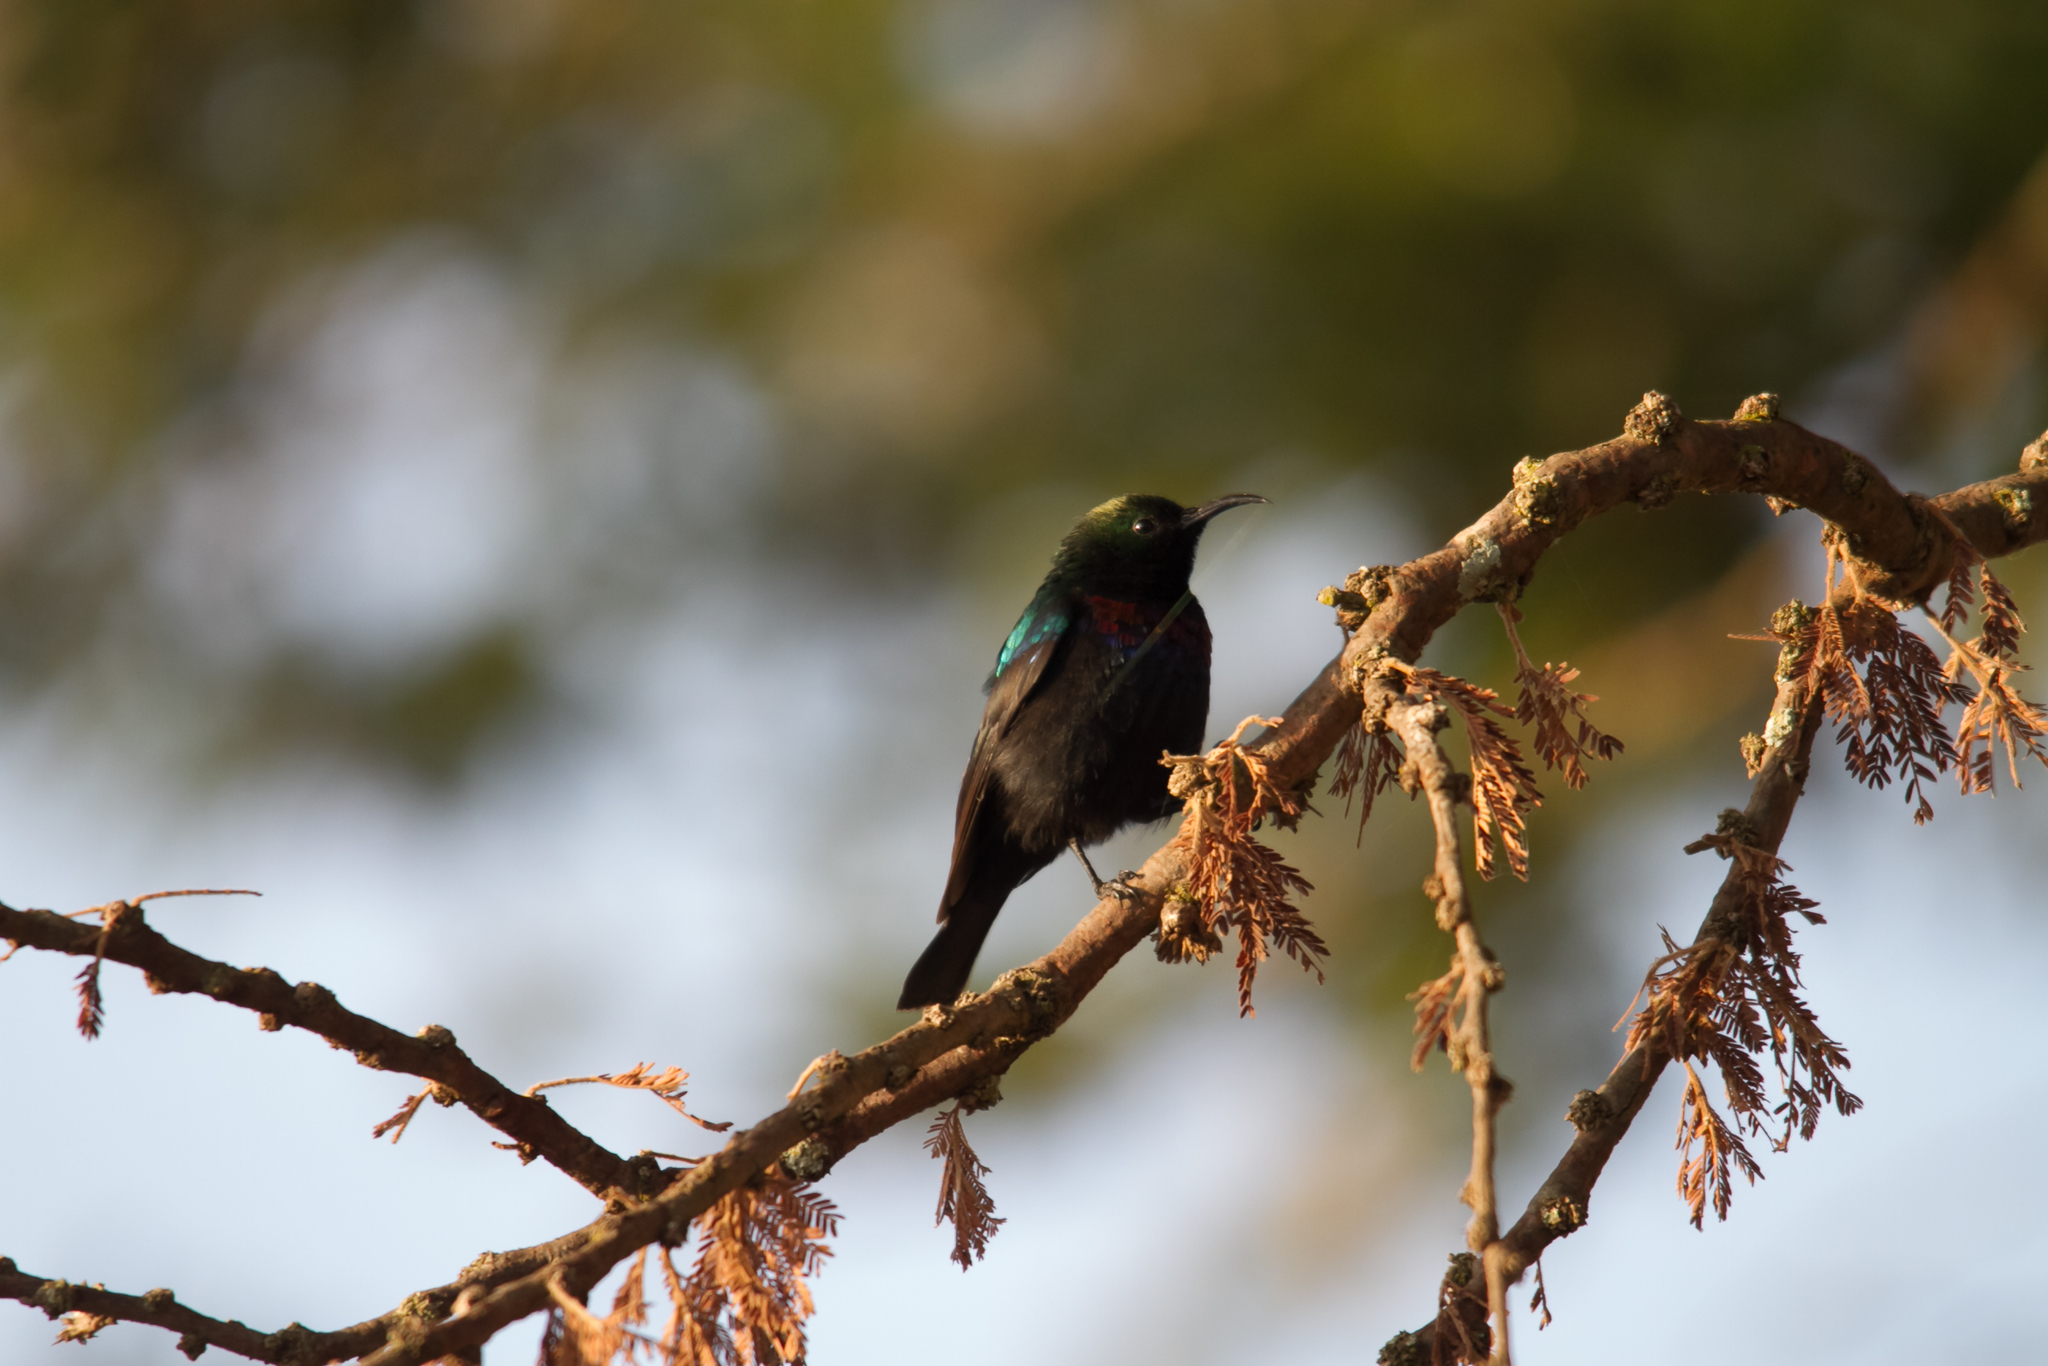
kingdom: Animalia
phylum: Chordata
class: Aves
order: Passeriformes
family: Nectariniidae
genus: Cinnyris
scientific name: Cinnyris habessinicus
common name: Shining sunbird
